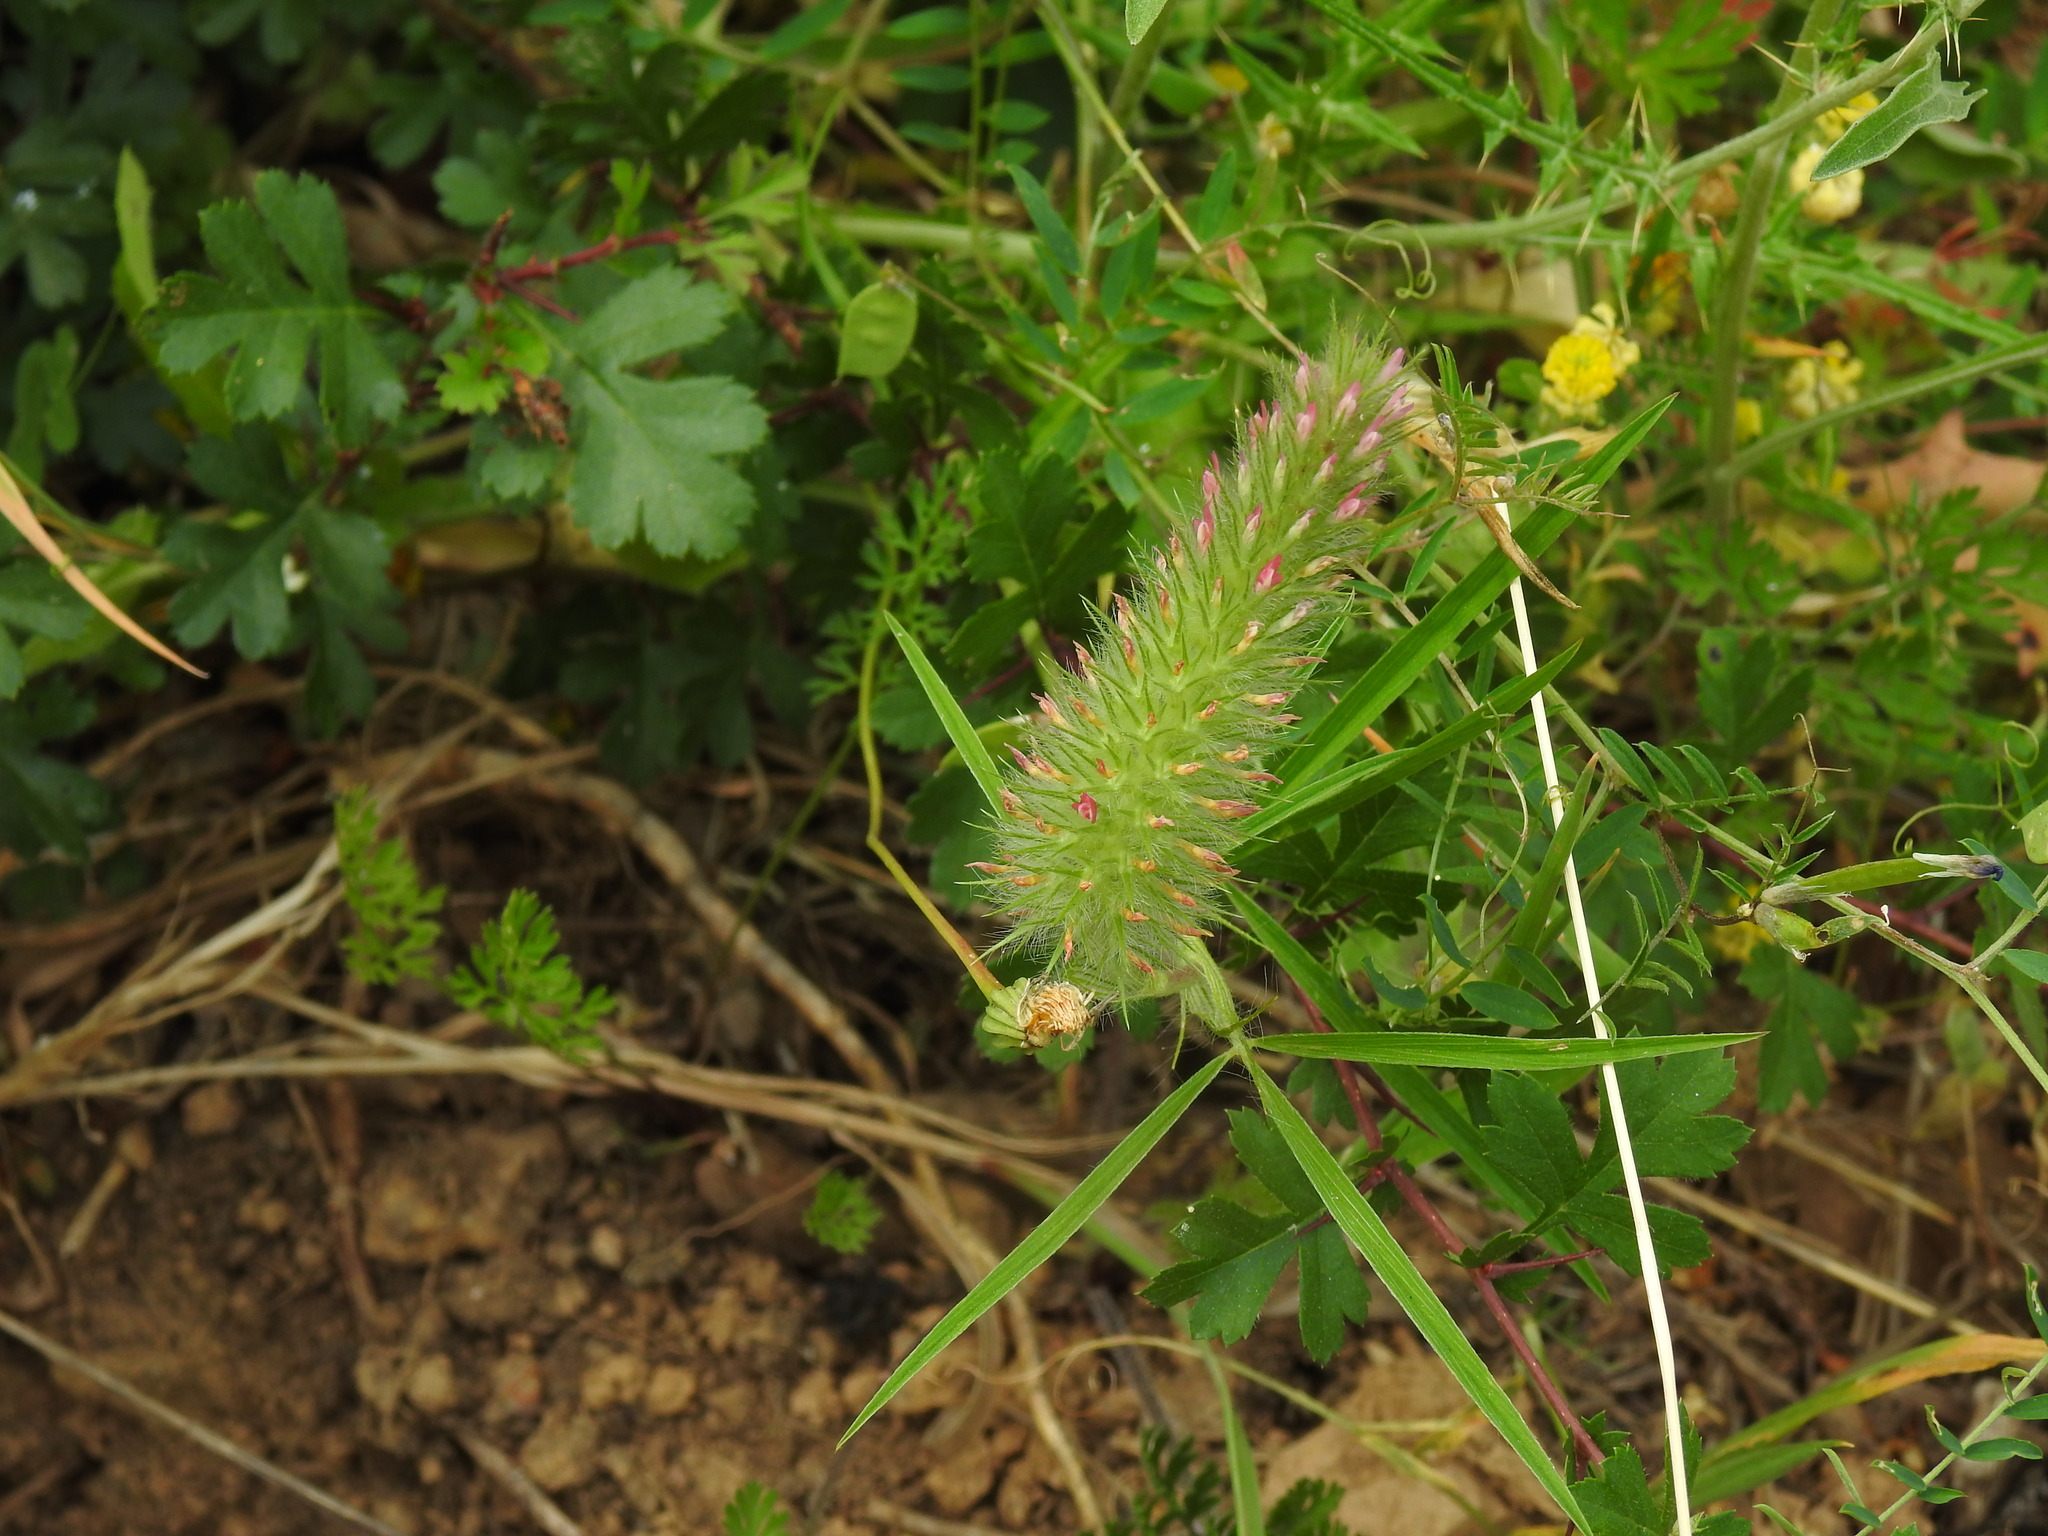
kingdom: Plantae
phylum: Tracheophyta
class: Magnoliopsida
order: Fabales
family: Fabaceae
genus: Trifolium
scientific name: Trifolium angustifolium
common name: Narrow clover
